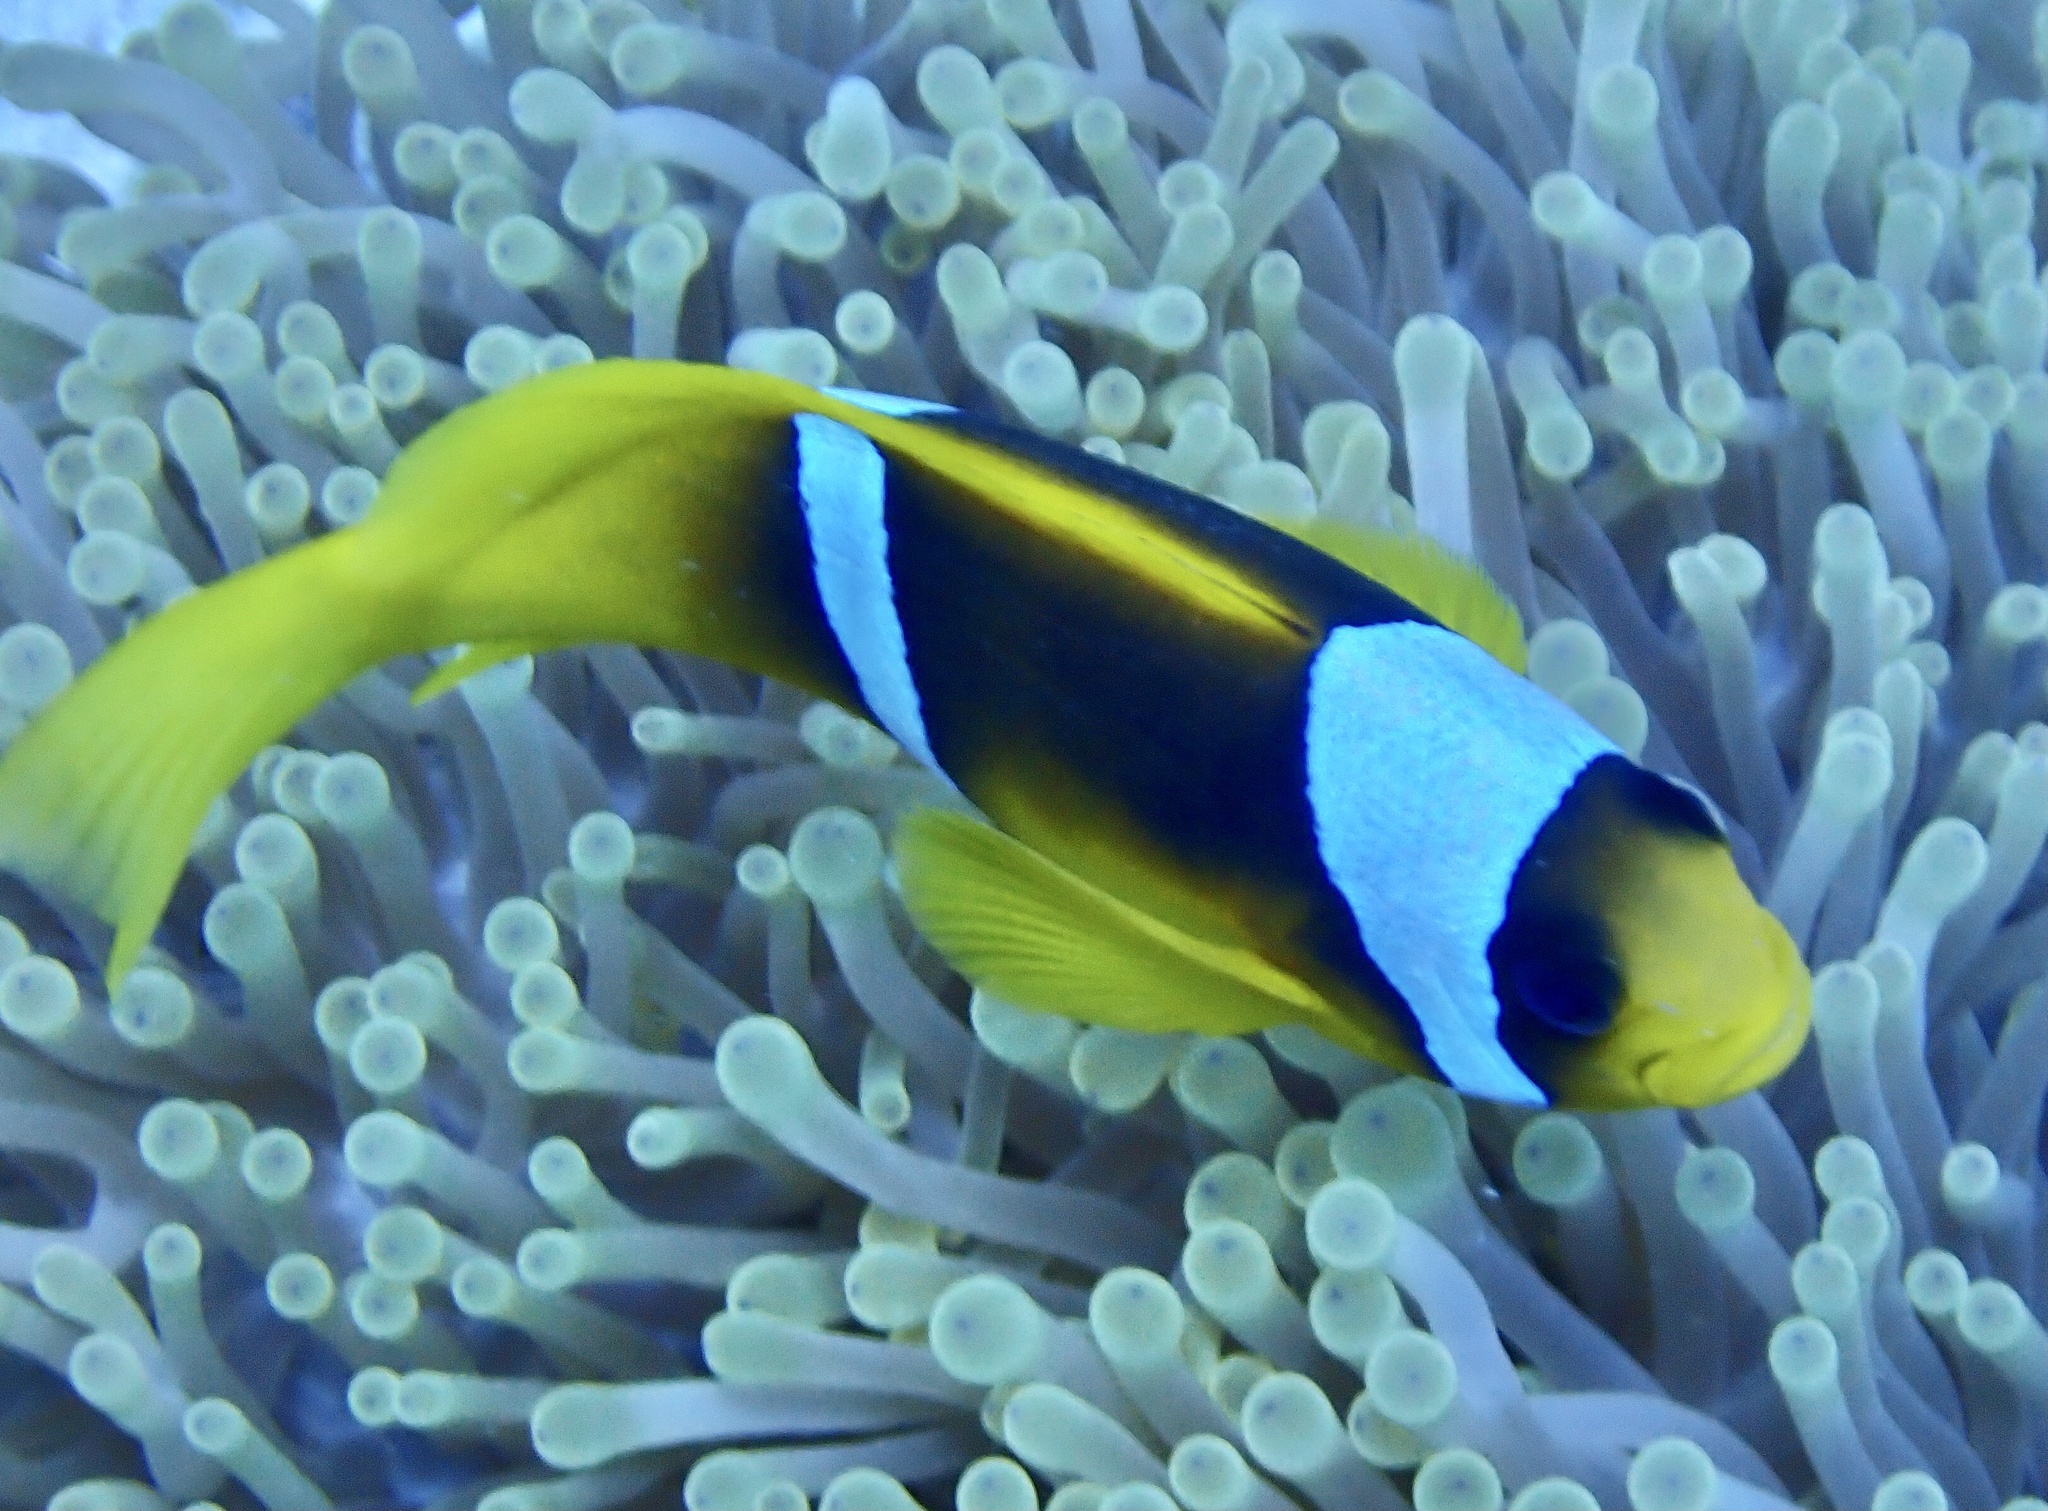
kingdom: Animalia
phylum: Chordata
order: Perciformes
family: Pomacentridae
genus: Amphiprion
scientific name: Amphiprion bicinctus
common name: Two-banded anemonefish
